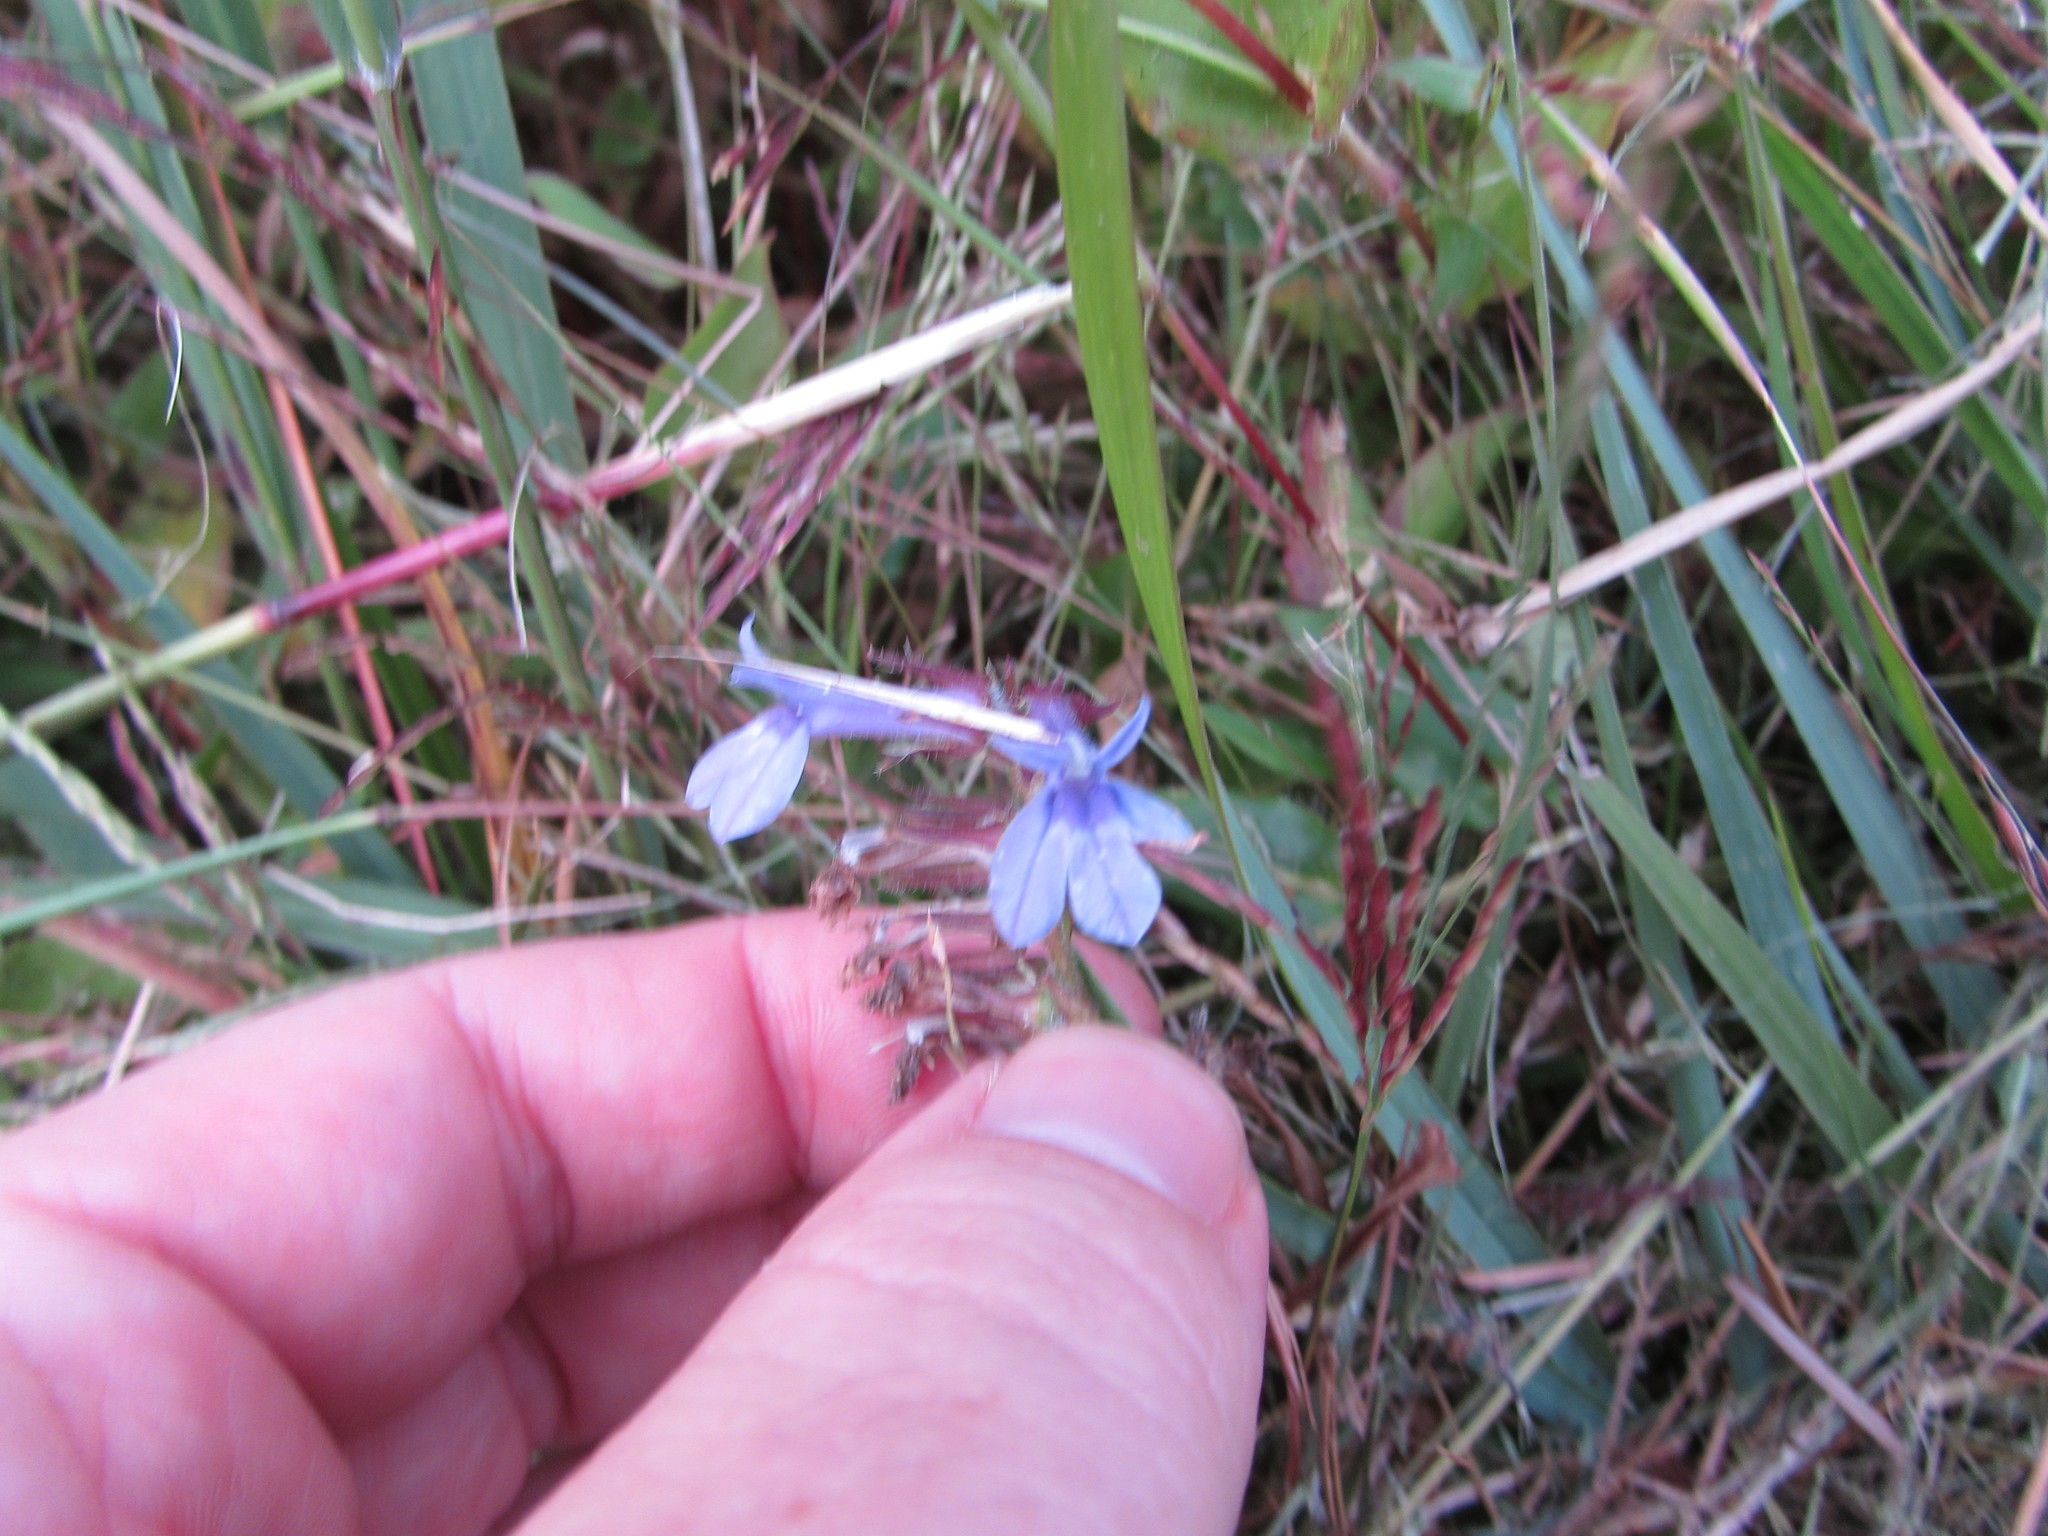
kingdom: Plantae
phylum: Tracheophyta
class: Magnoliopsida
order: Asterales
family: Campanulaceae
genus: Lobelia
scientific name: Lobelia puberula
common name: Purple dewdrop
